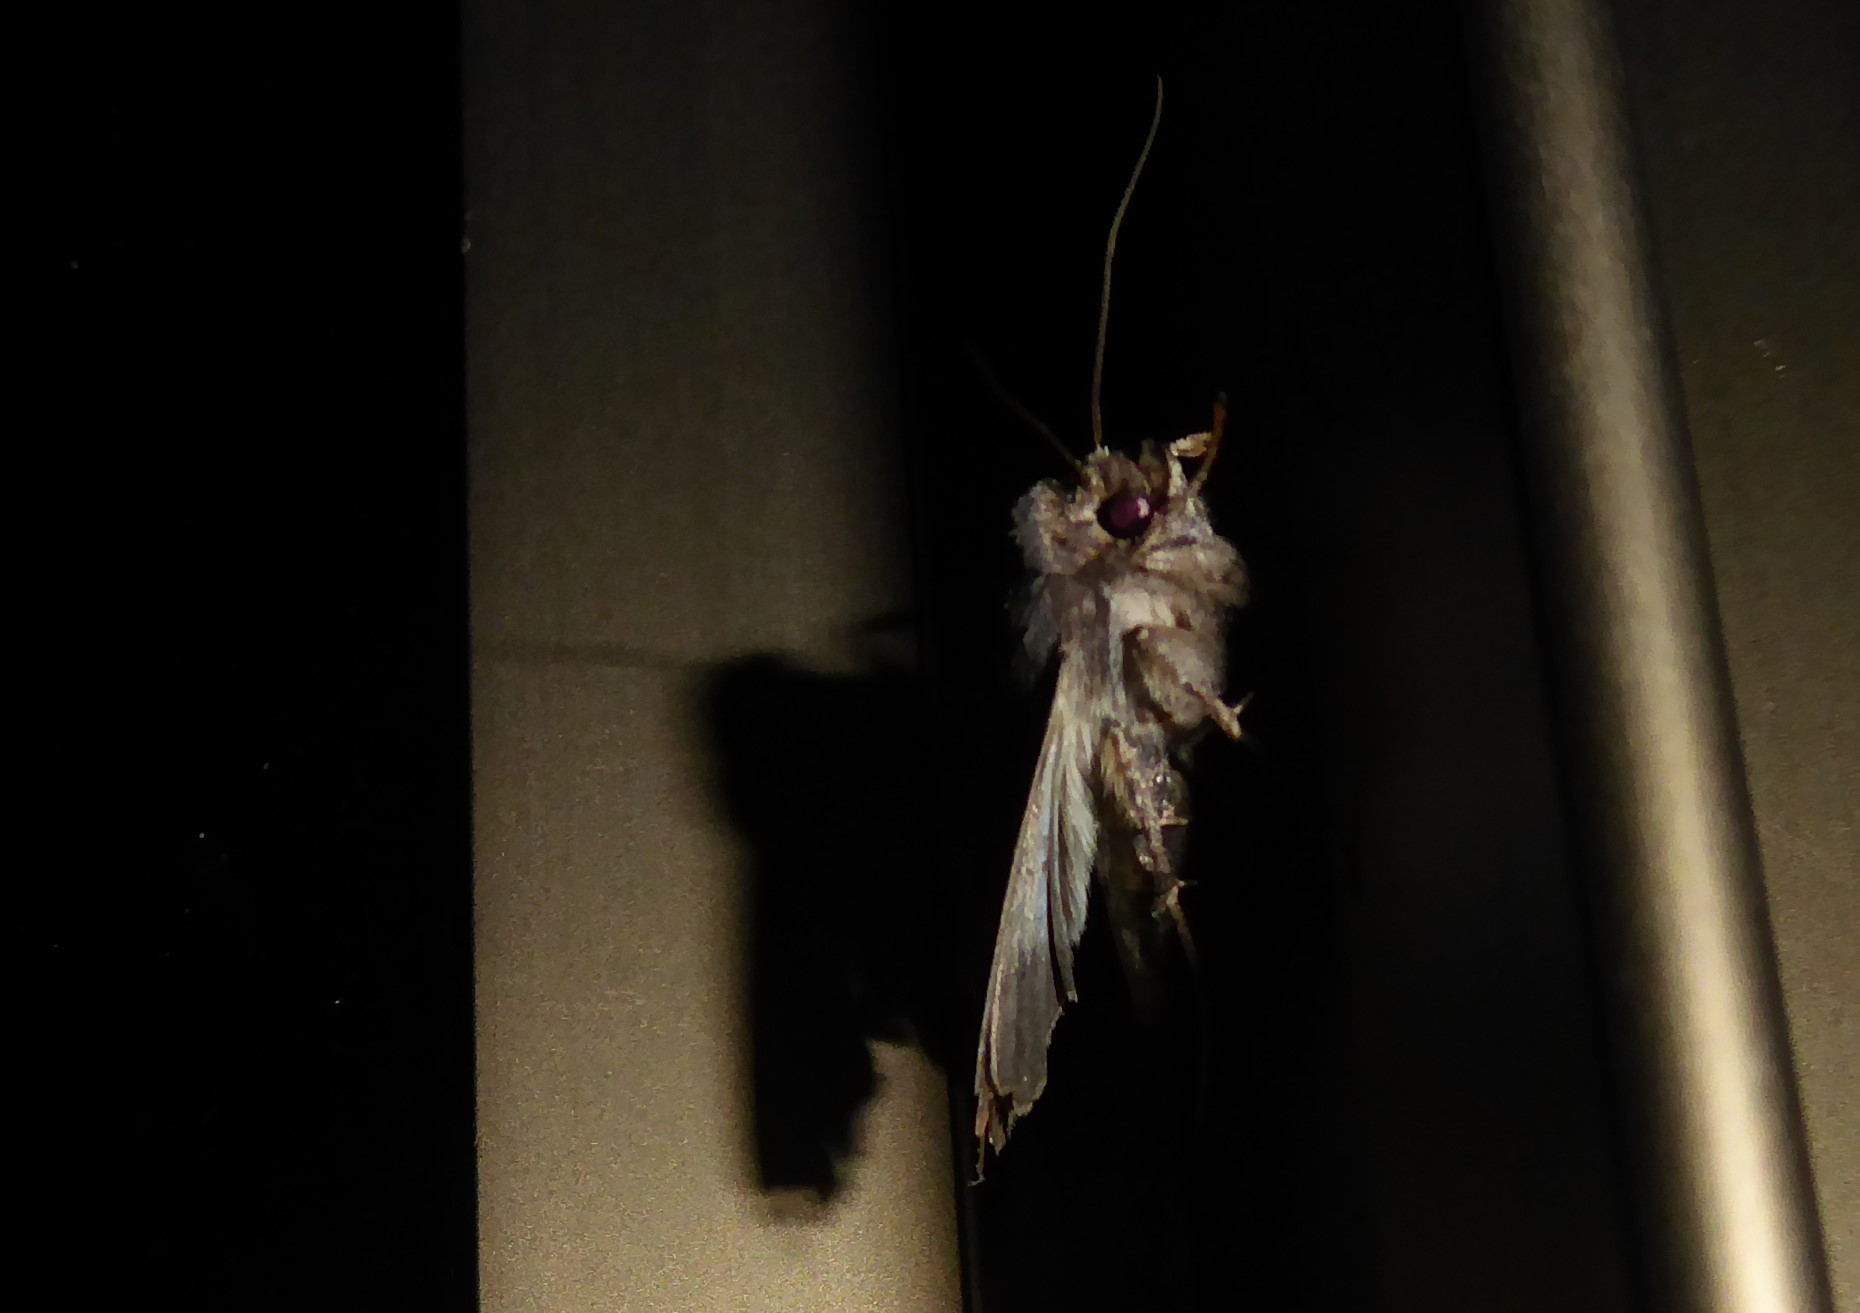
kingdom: Animalia
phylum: Arthropoda
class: Insecta
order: Lepidoptera
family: Noctuidae
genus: Agrotis
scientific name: Agrotis ipsilon
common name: Dark sword-grass
